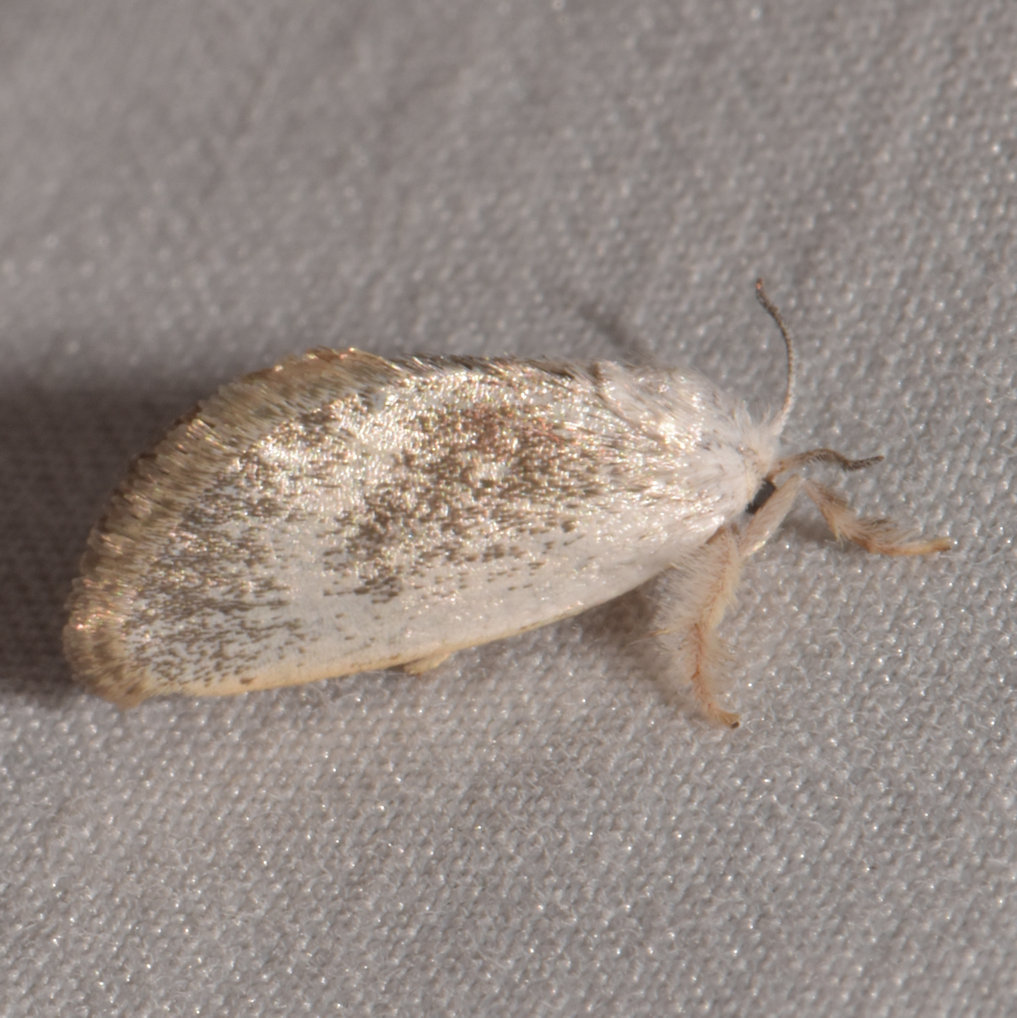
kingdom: Animalia
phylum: Arthropoda
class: Insecta
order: Lepidoptera
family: Limacodidae
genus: Alarodia
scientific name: Alarodia minuscula
